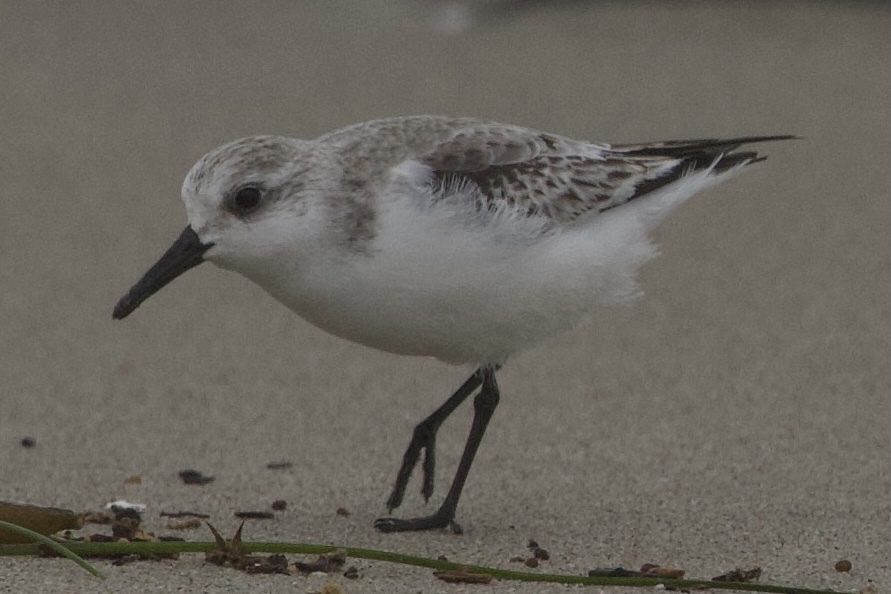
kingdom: Animalia
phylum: Chordata
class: Aves
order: Charadriiformes
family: Scolopacidae
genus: Calidris
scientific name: Calidris alba
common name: Sanderling
